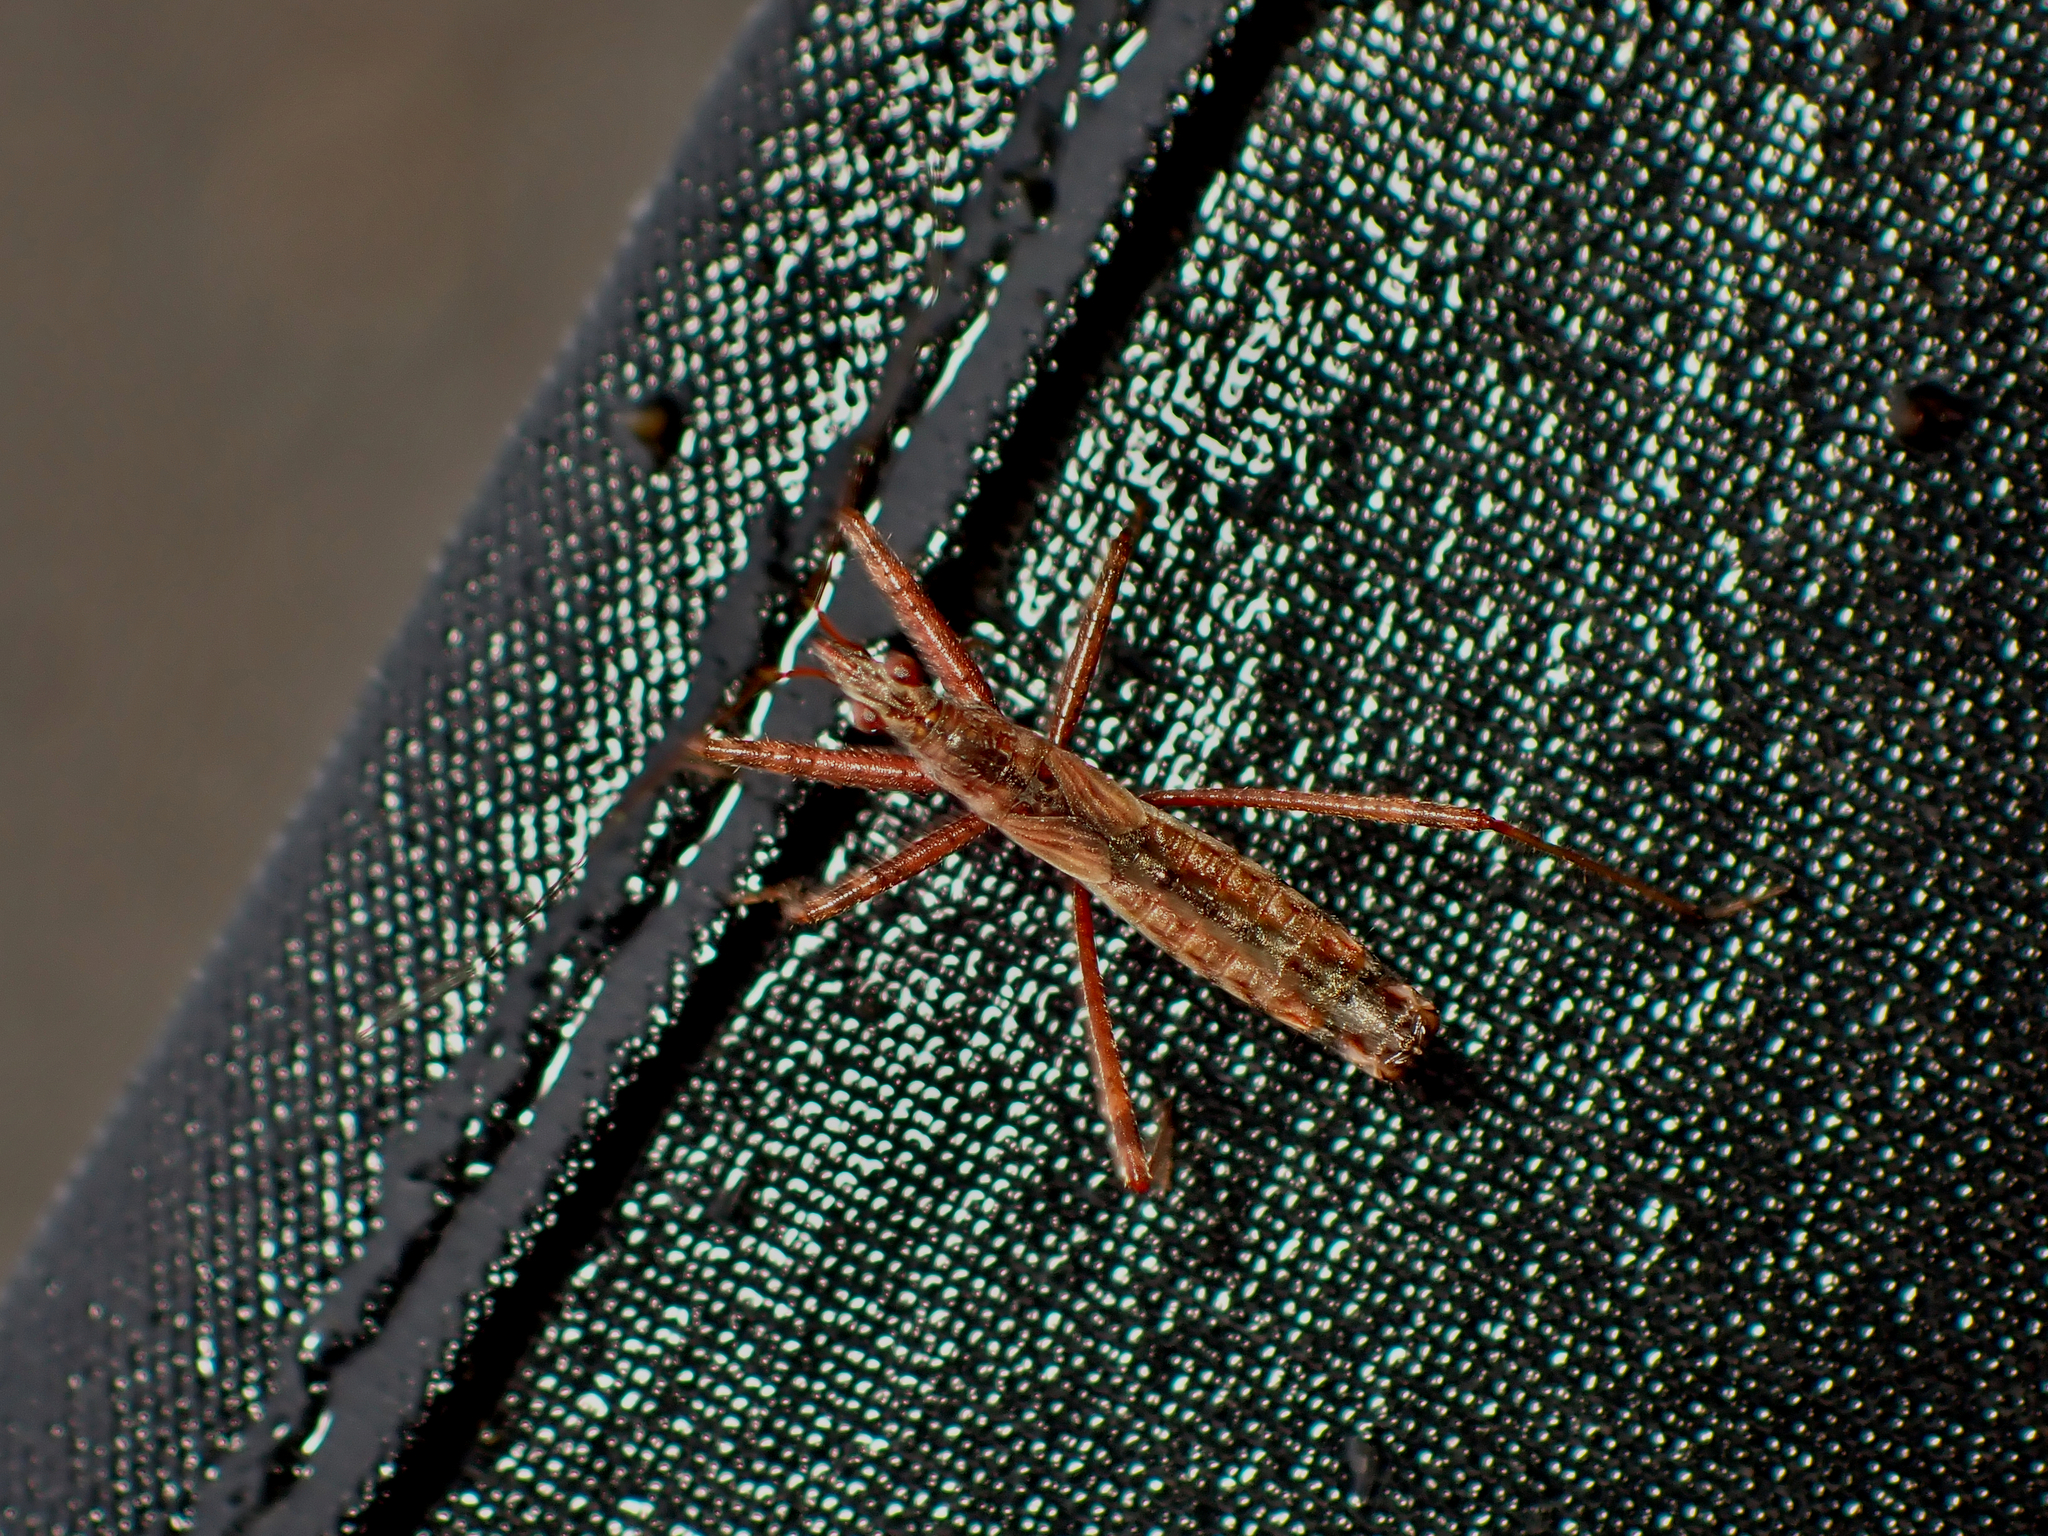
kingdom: Animalia
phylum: Arthropoda
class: Insecta
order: Hemiptera
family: Nabidae
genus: Nabis
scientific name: Nabis
